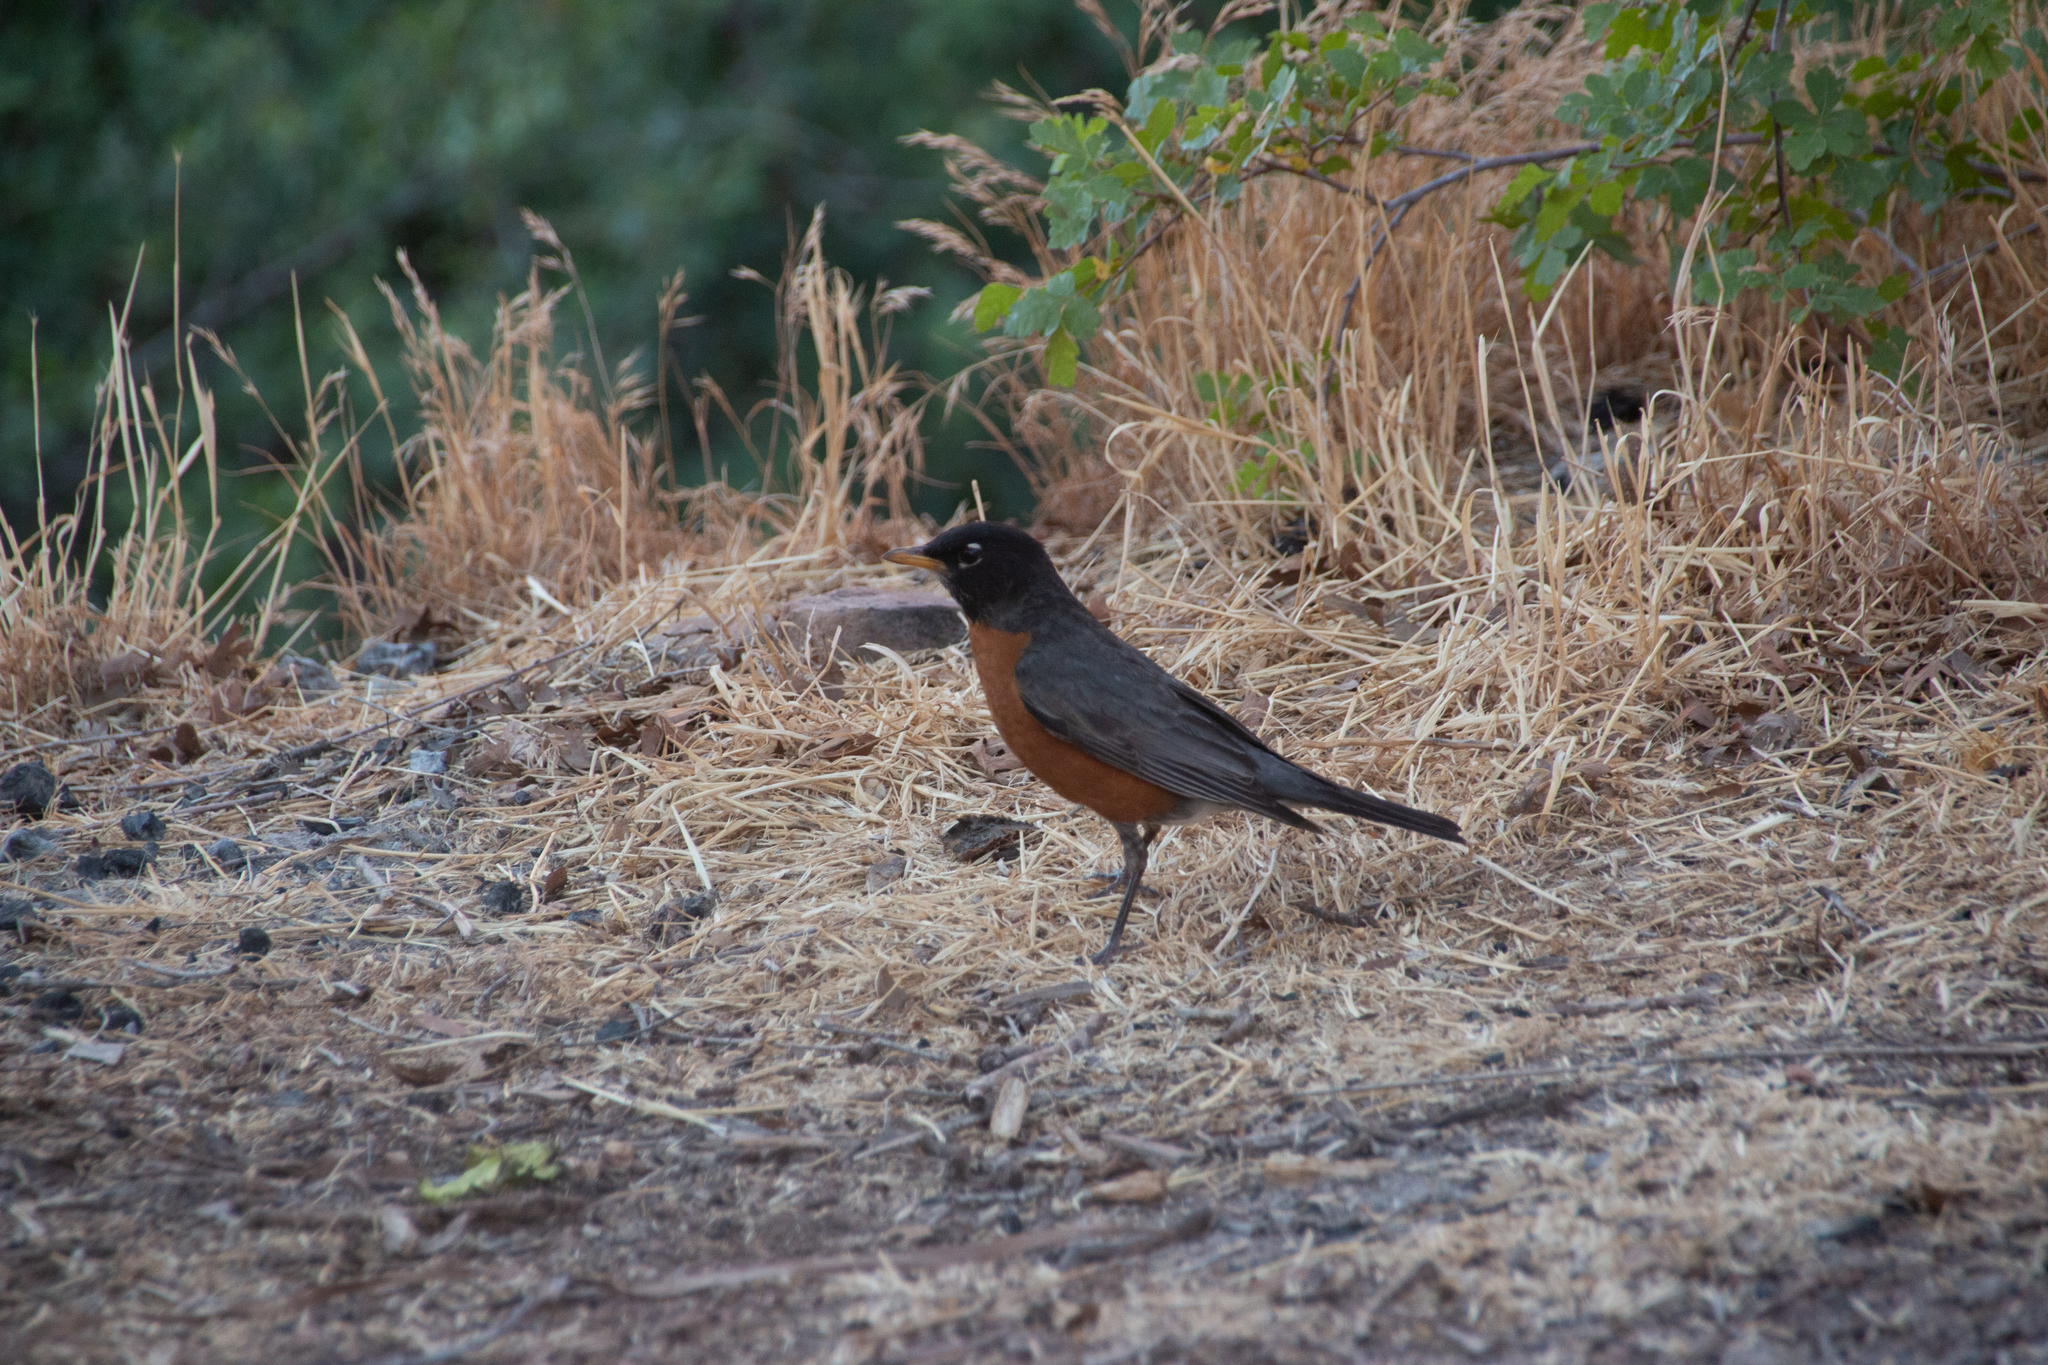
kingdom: Animalia
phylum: Chordata
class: Aves
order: Passeriformes
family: Turdidae
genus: Turdus
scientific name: Turdus migratorius
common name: American robin
